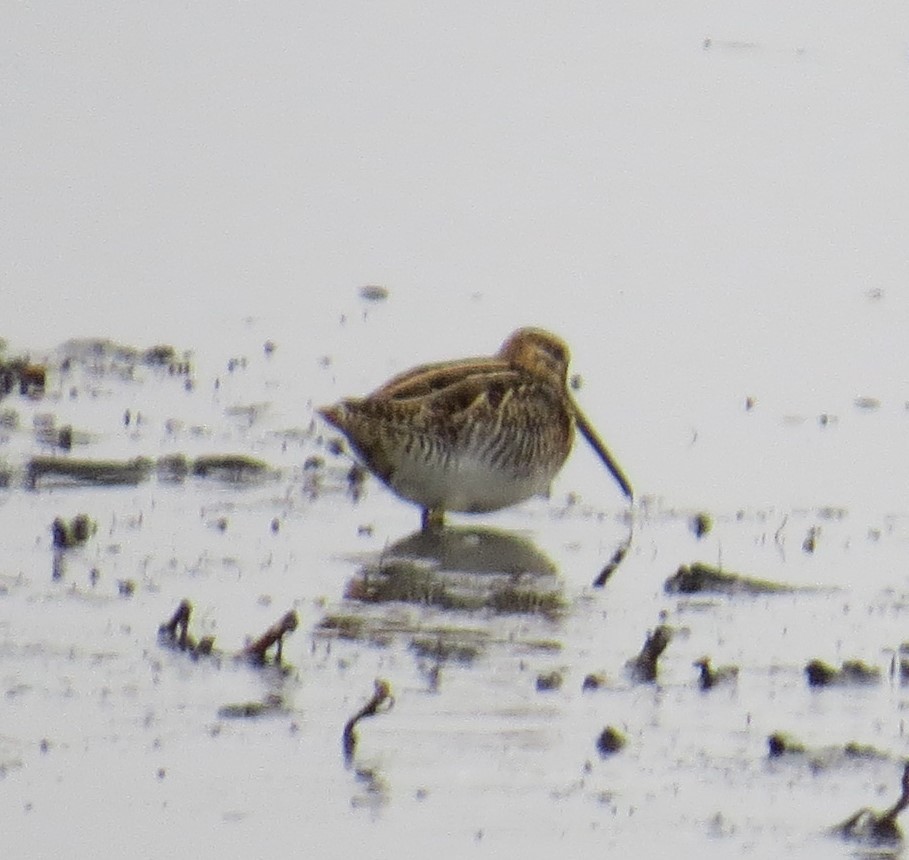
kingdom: Animalia
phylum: Chordata
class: Aves
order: Charadriiformes
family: Scolopacidae
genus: Gallinago
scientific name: Gallinago delicata
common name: Wilson's snipe
